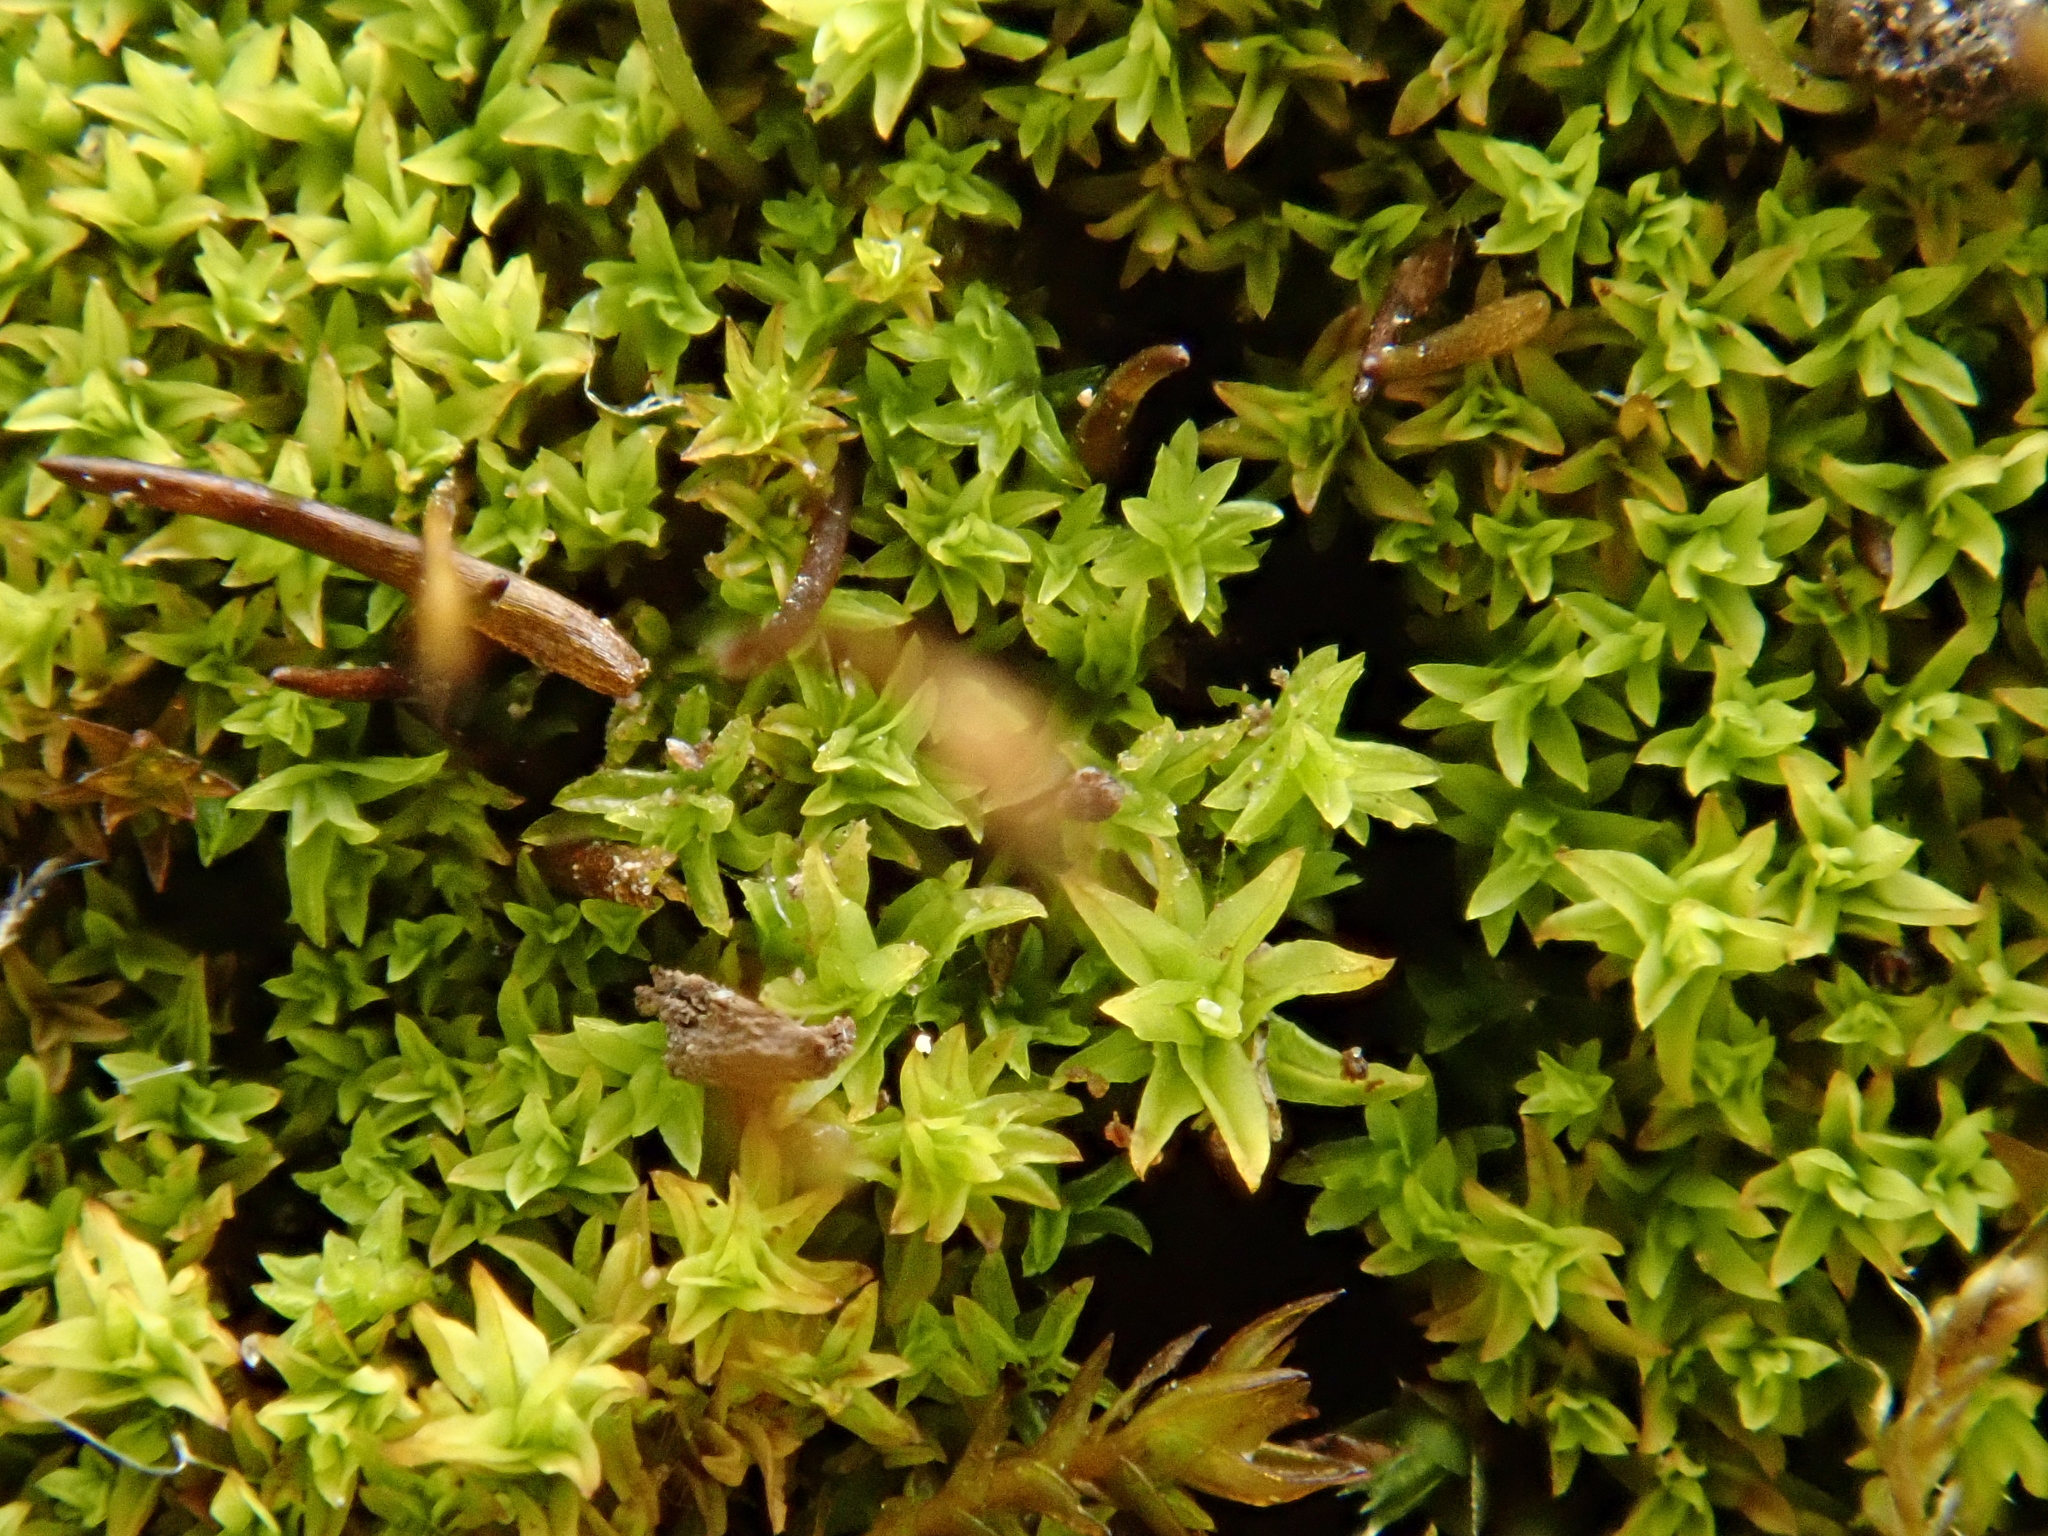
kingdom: Plantae
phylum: Bryophyta
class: Bryopsida
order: Pottiales
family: Pottiaceae
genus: Streblotrichum
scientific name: Streblotrichum convolutum
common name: Lesser bird's-claw beard-moss
